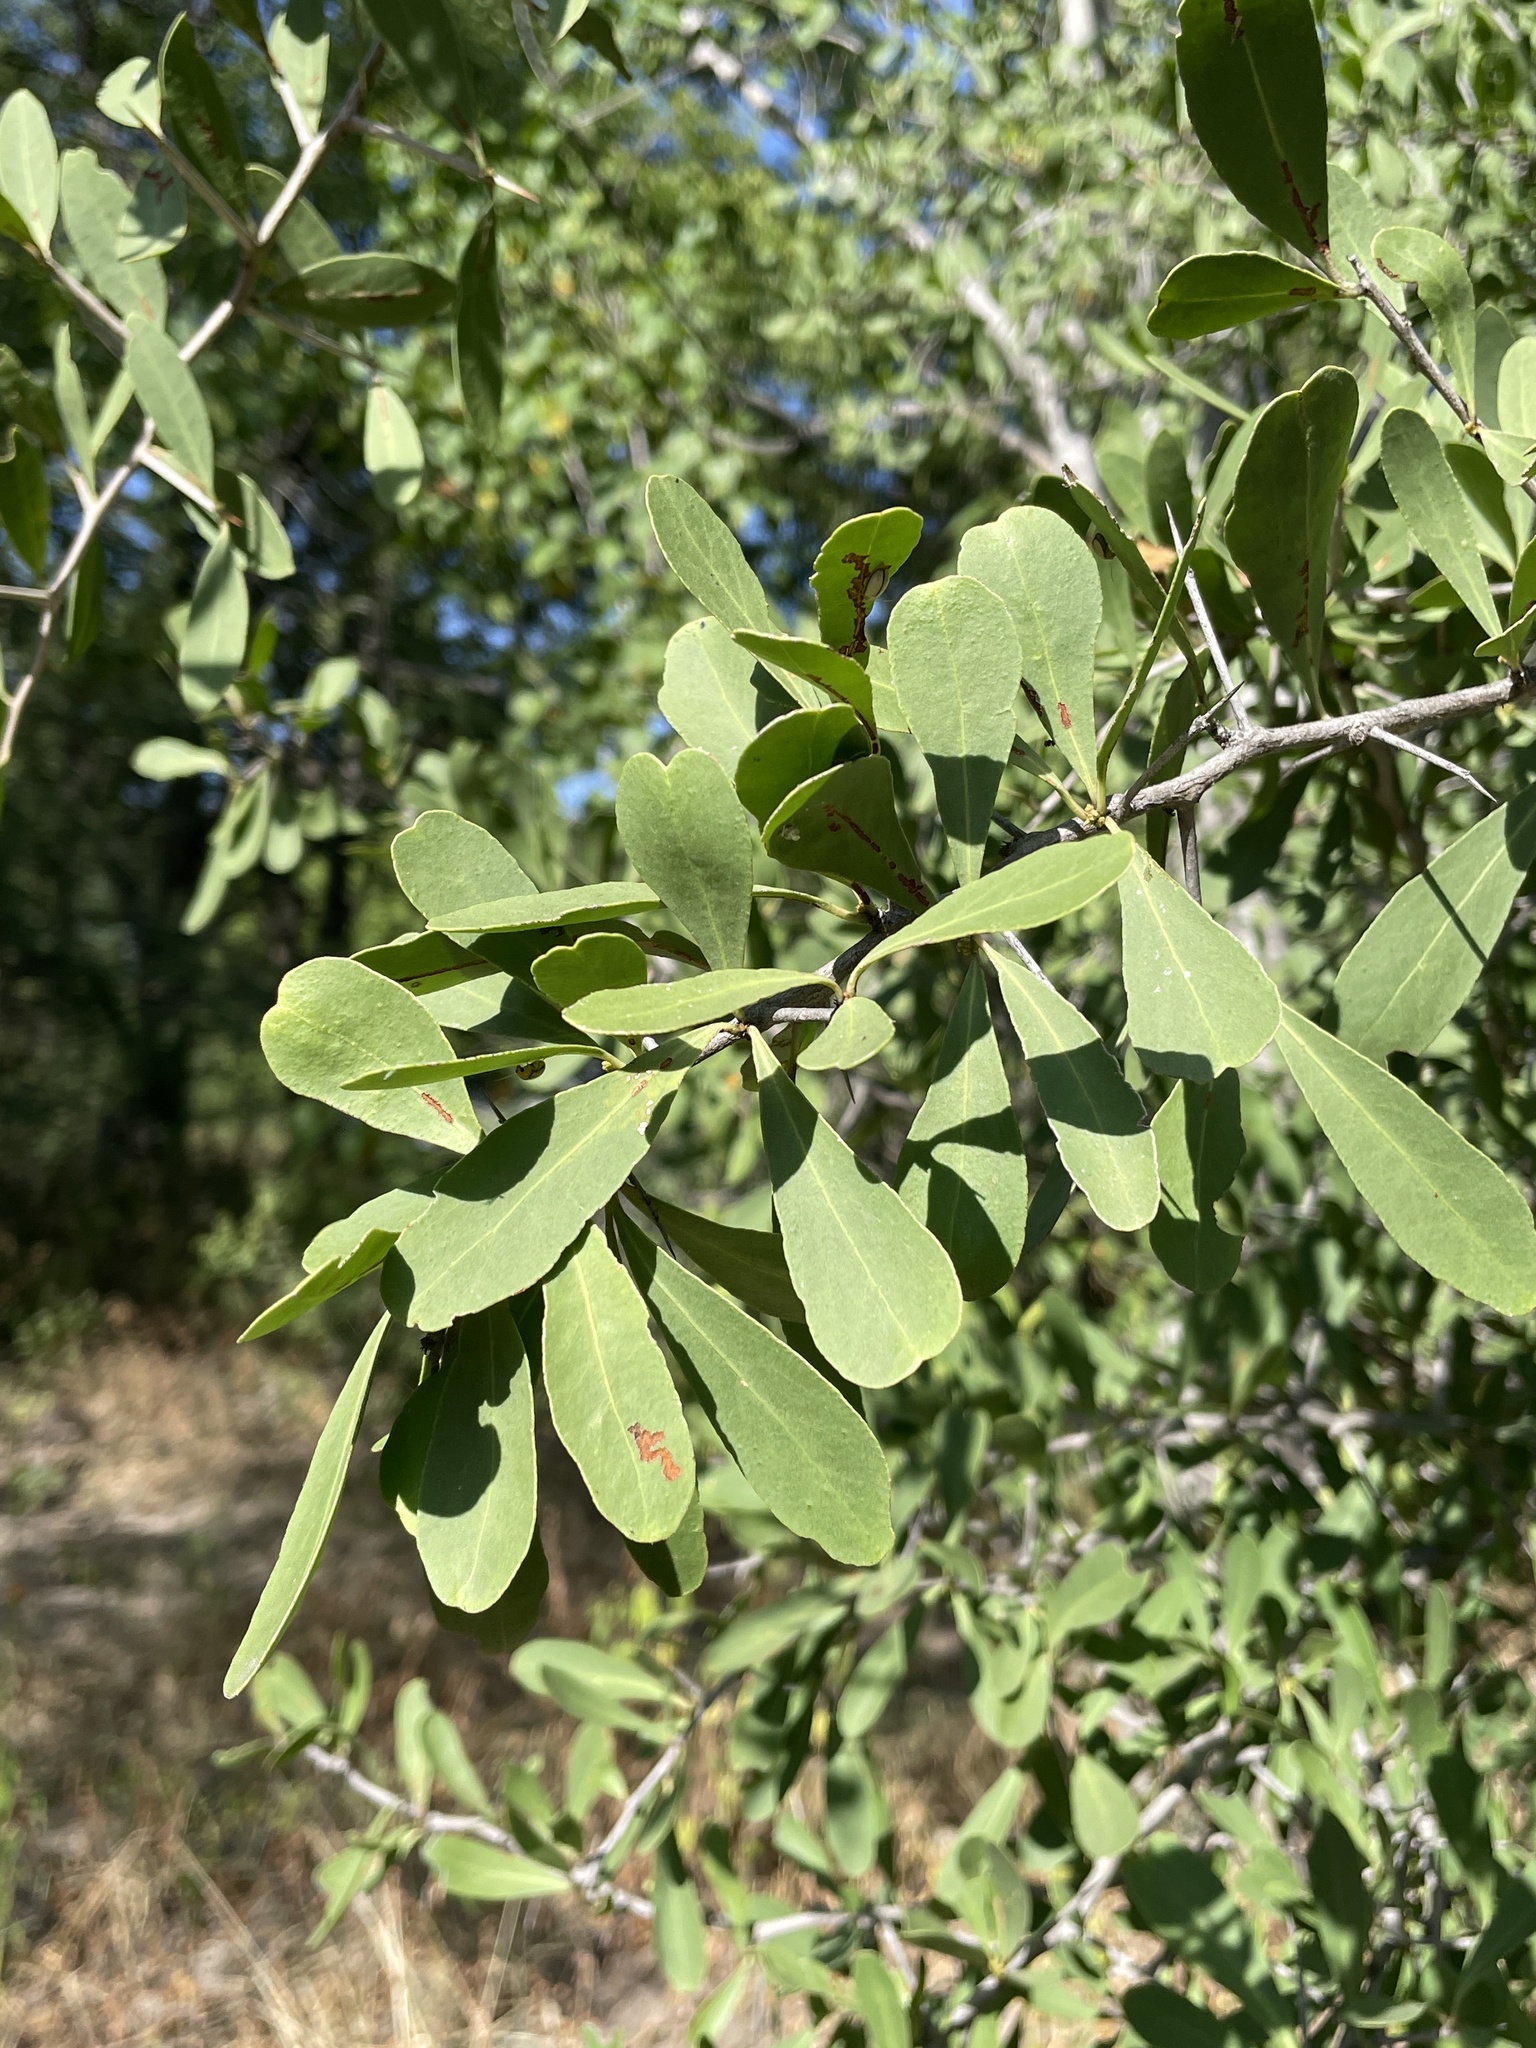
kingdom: Plantae
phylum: Tracheophyta
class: Magnoliopsida
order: Celastrales
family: Celastraceae
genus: Gymnosporia
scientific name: Gymnosporia senegalensis
